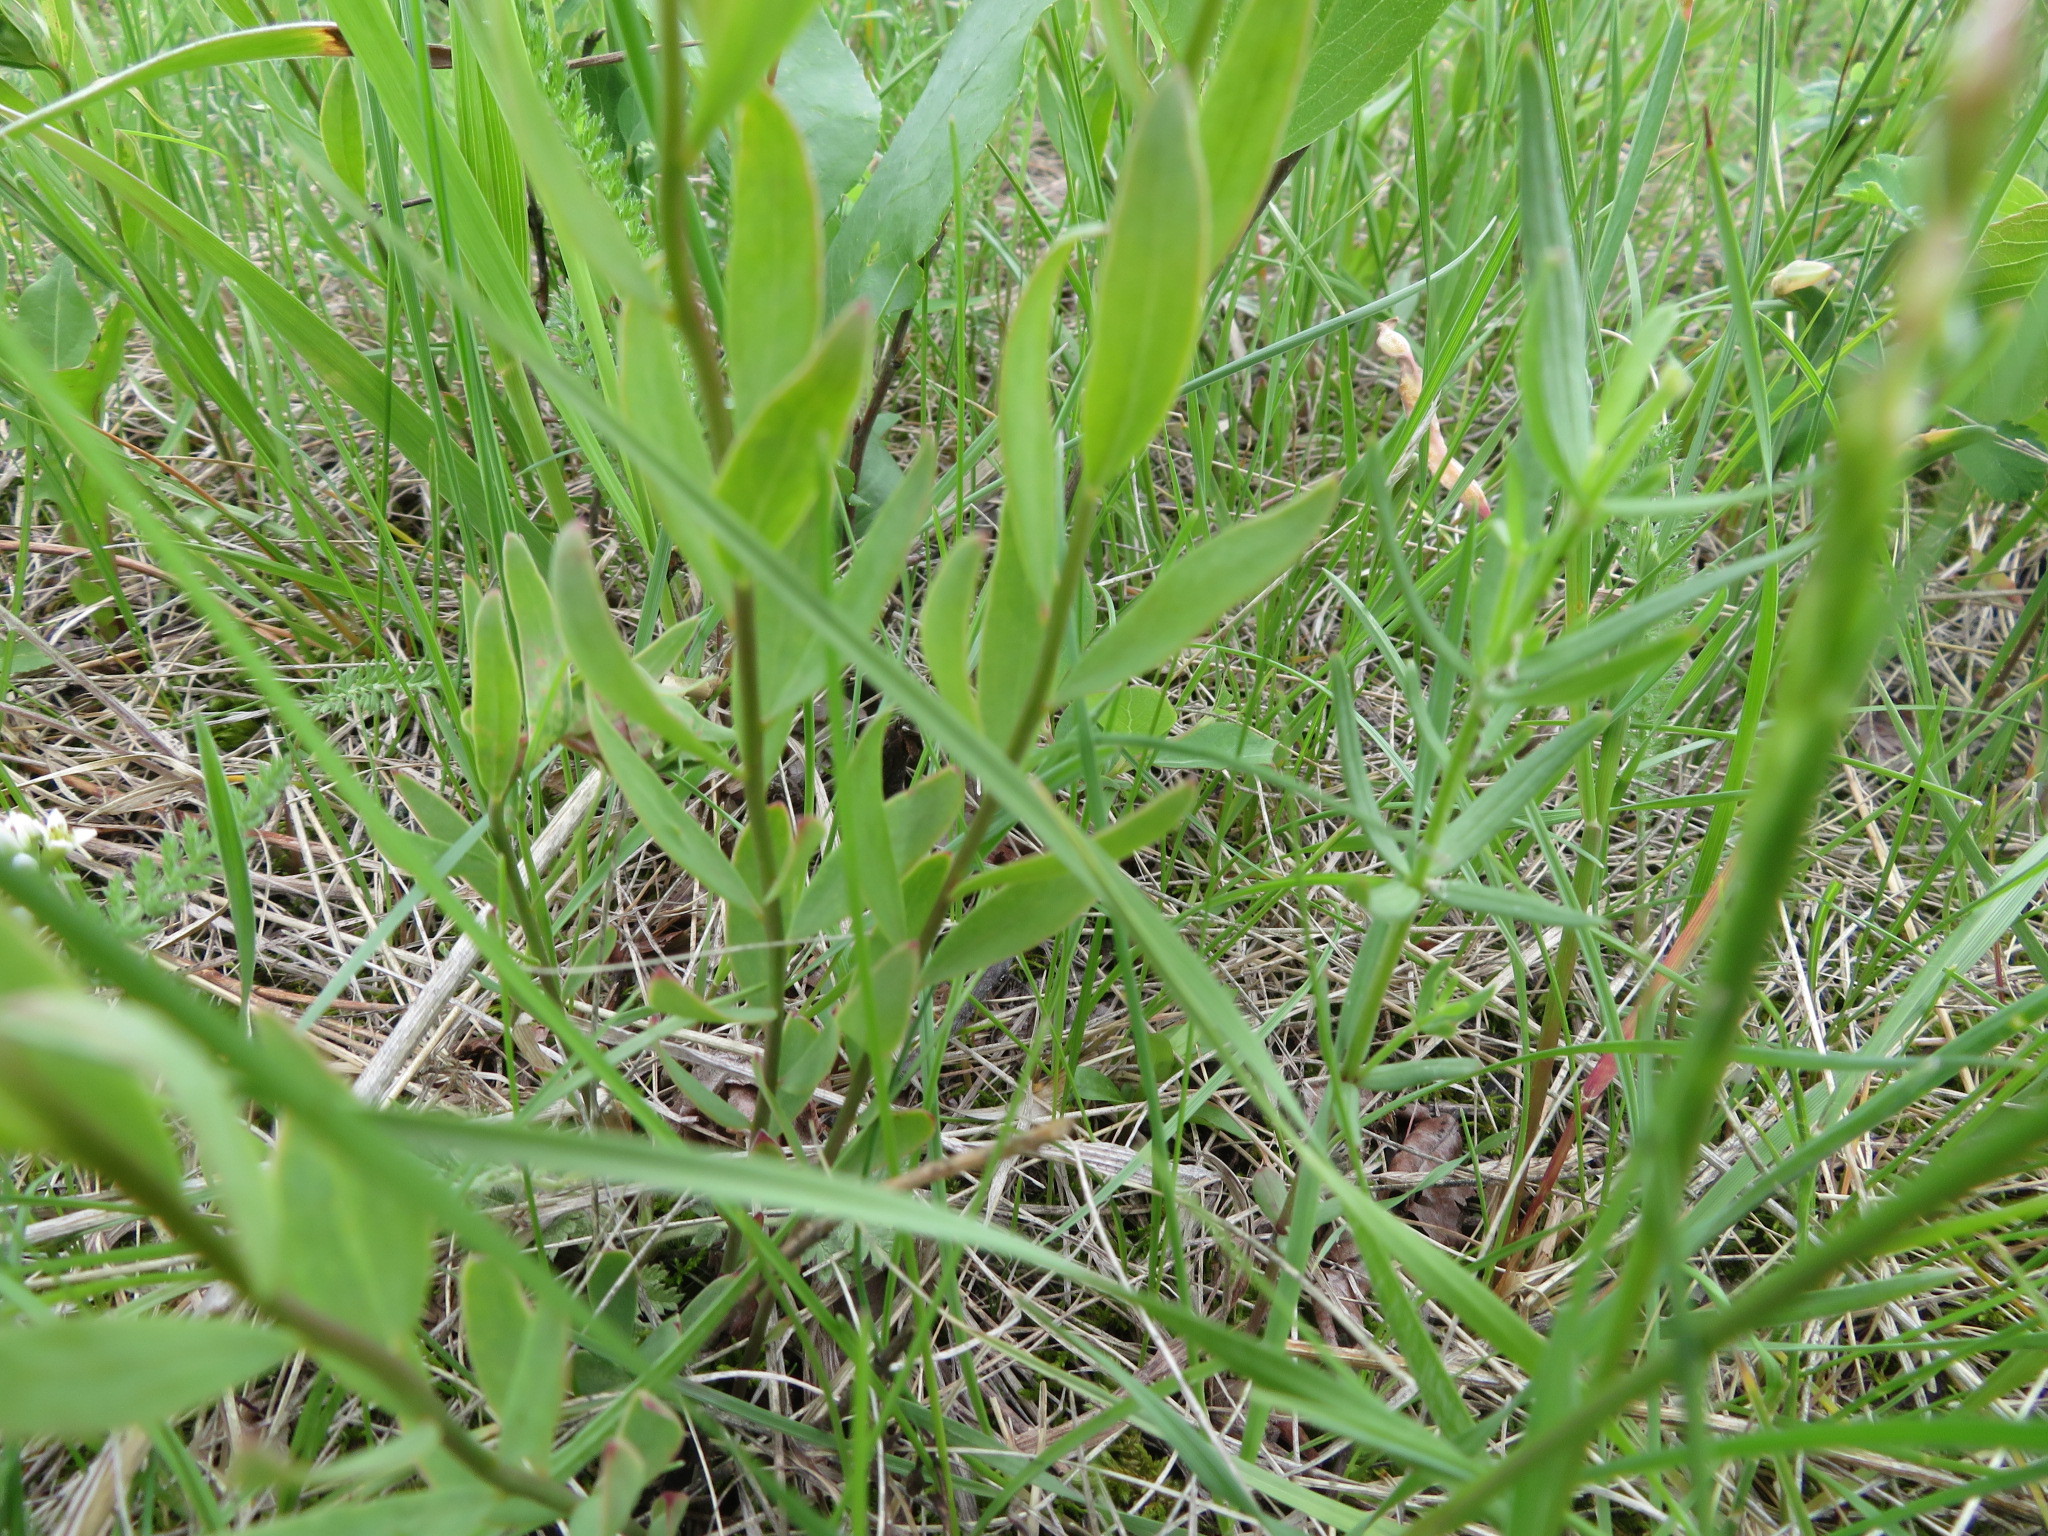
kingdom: Plantae
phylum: Tracheophyta
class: Magnoliopsida
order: Santalales
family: Comandraceae
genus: Comandra
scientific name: Comandra umbellata
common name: Bastard toadflax
